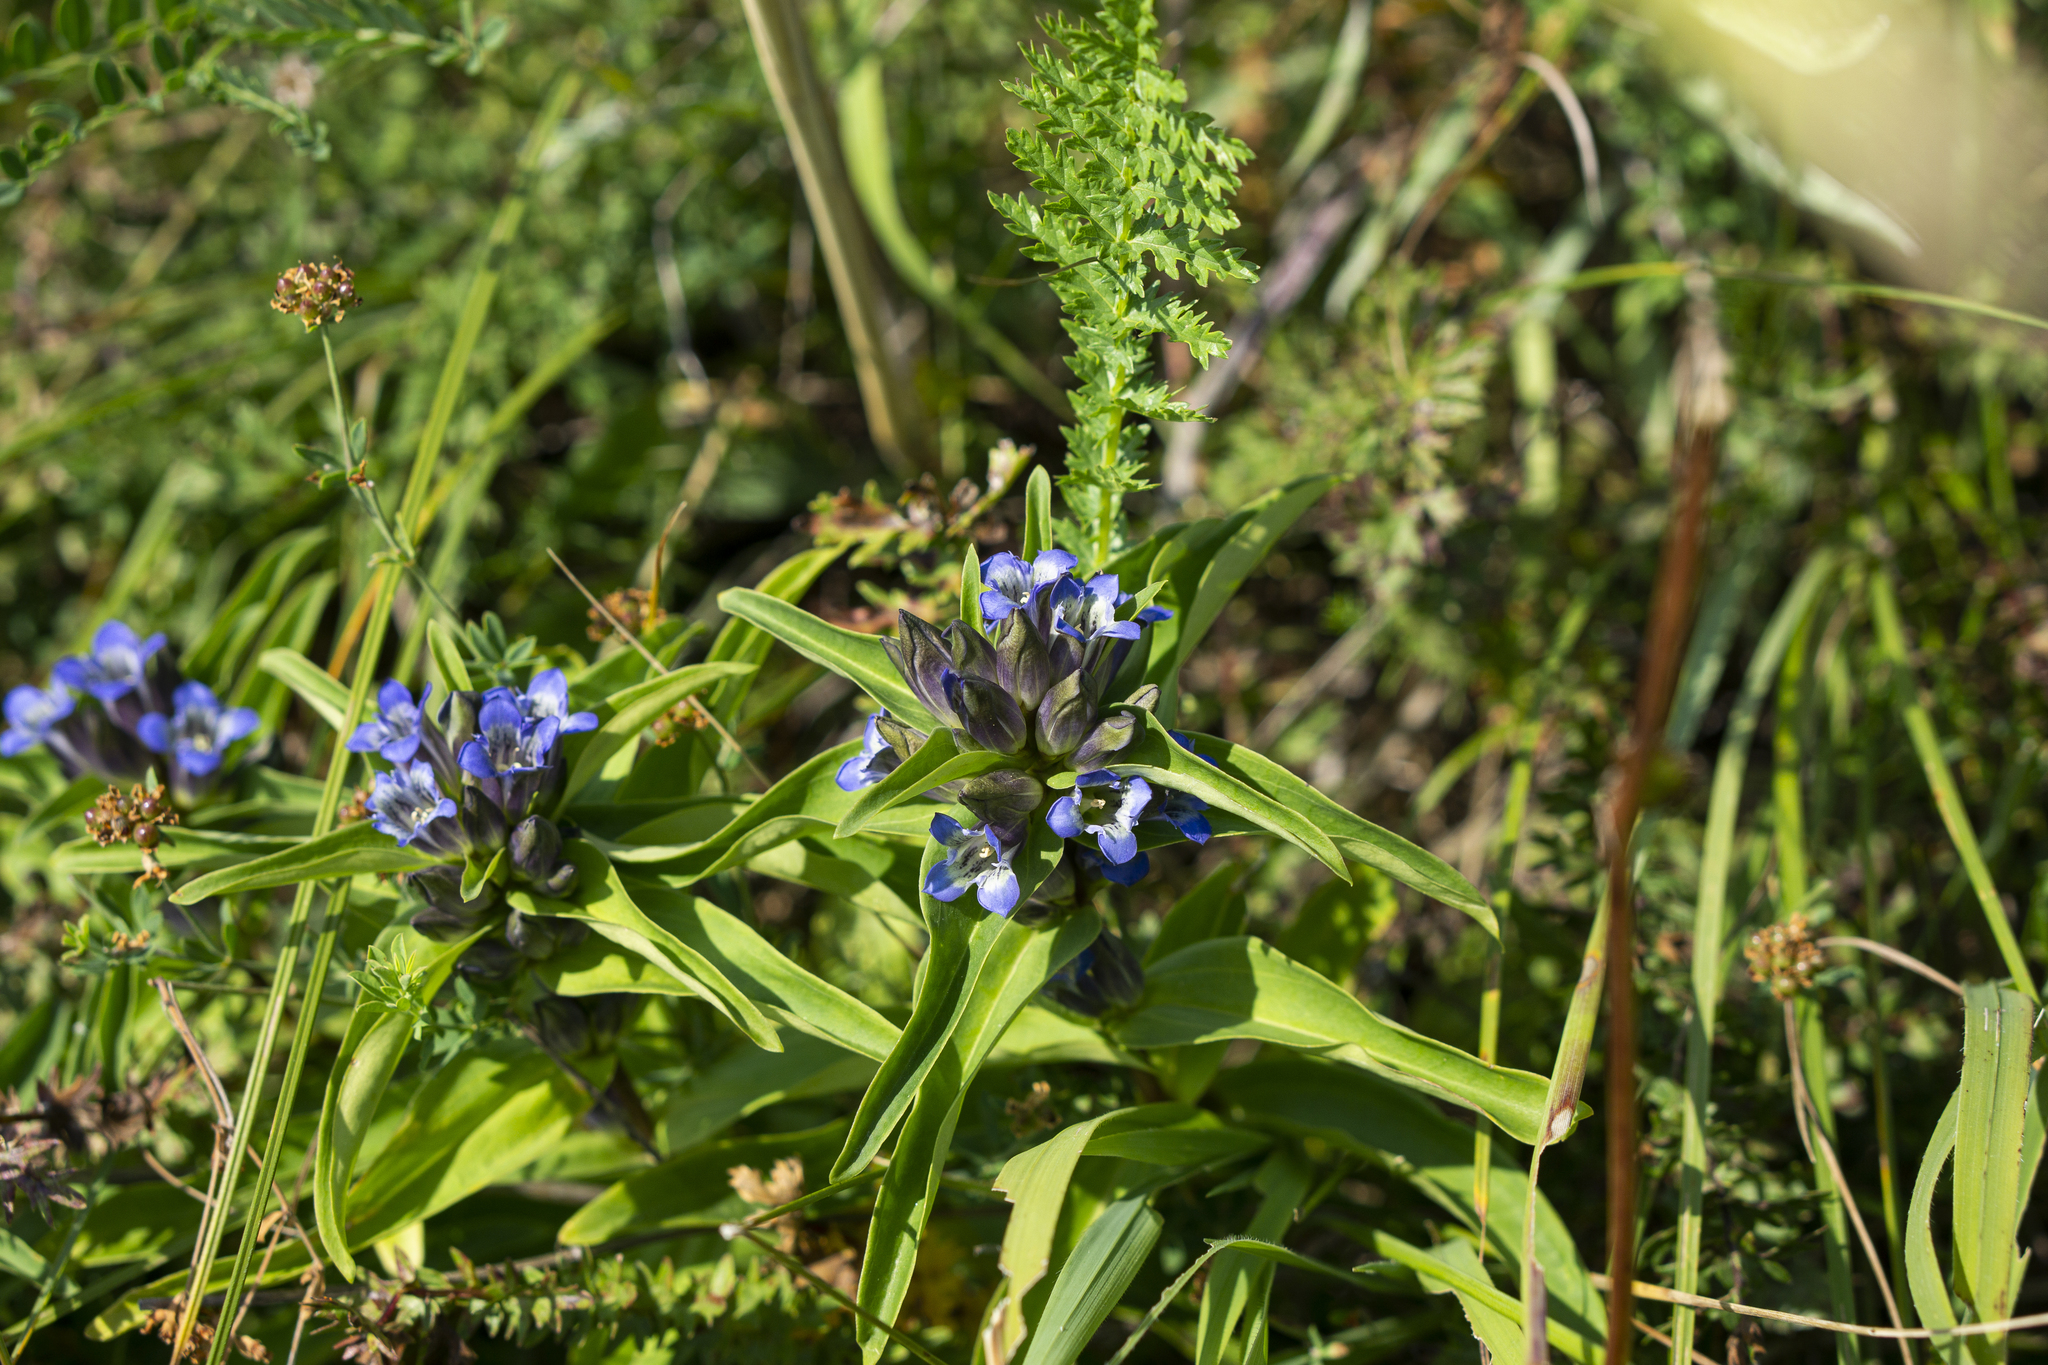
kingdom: Plantae
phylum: Tracheophyta
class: Magnoliopsida
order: Gentianales
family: Gentianaceae
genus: Gentiana
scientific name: Gentiana cruciata
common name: Cross gentian
